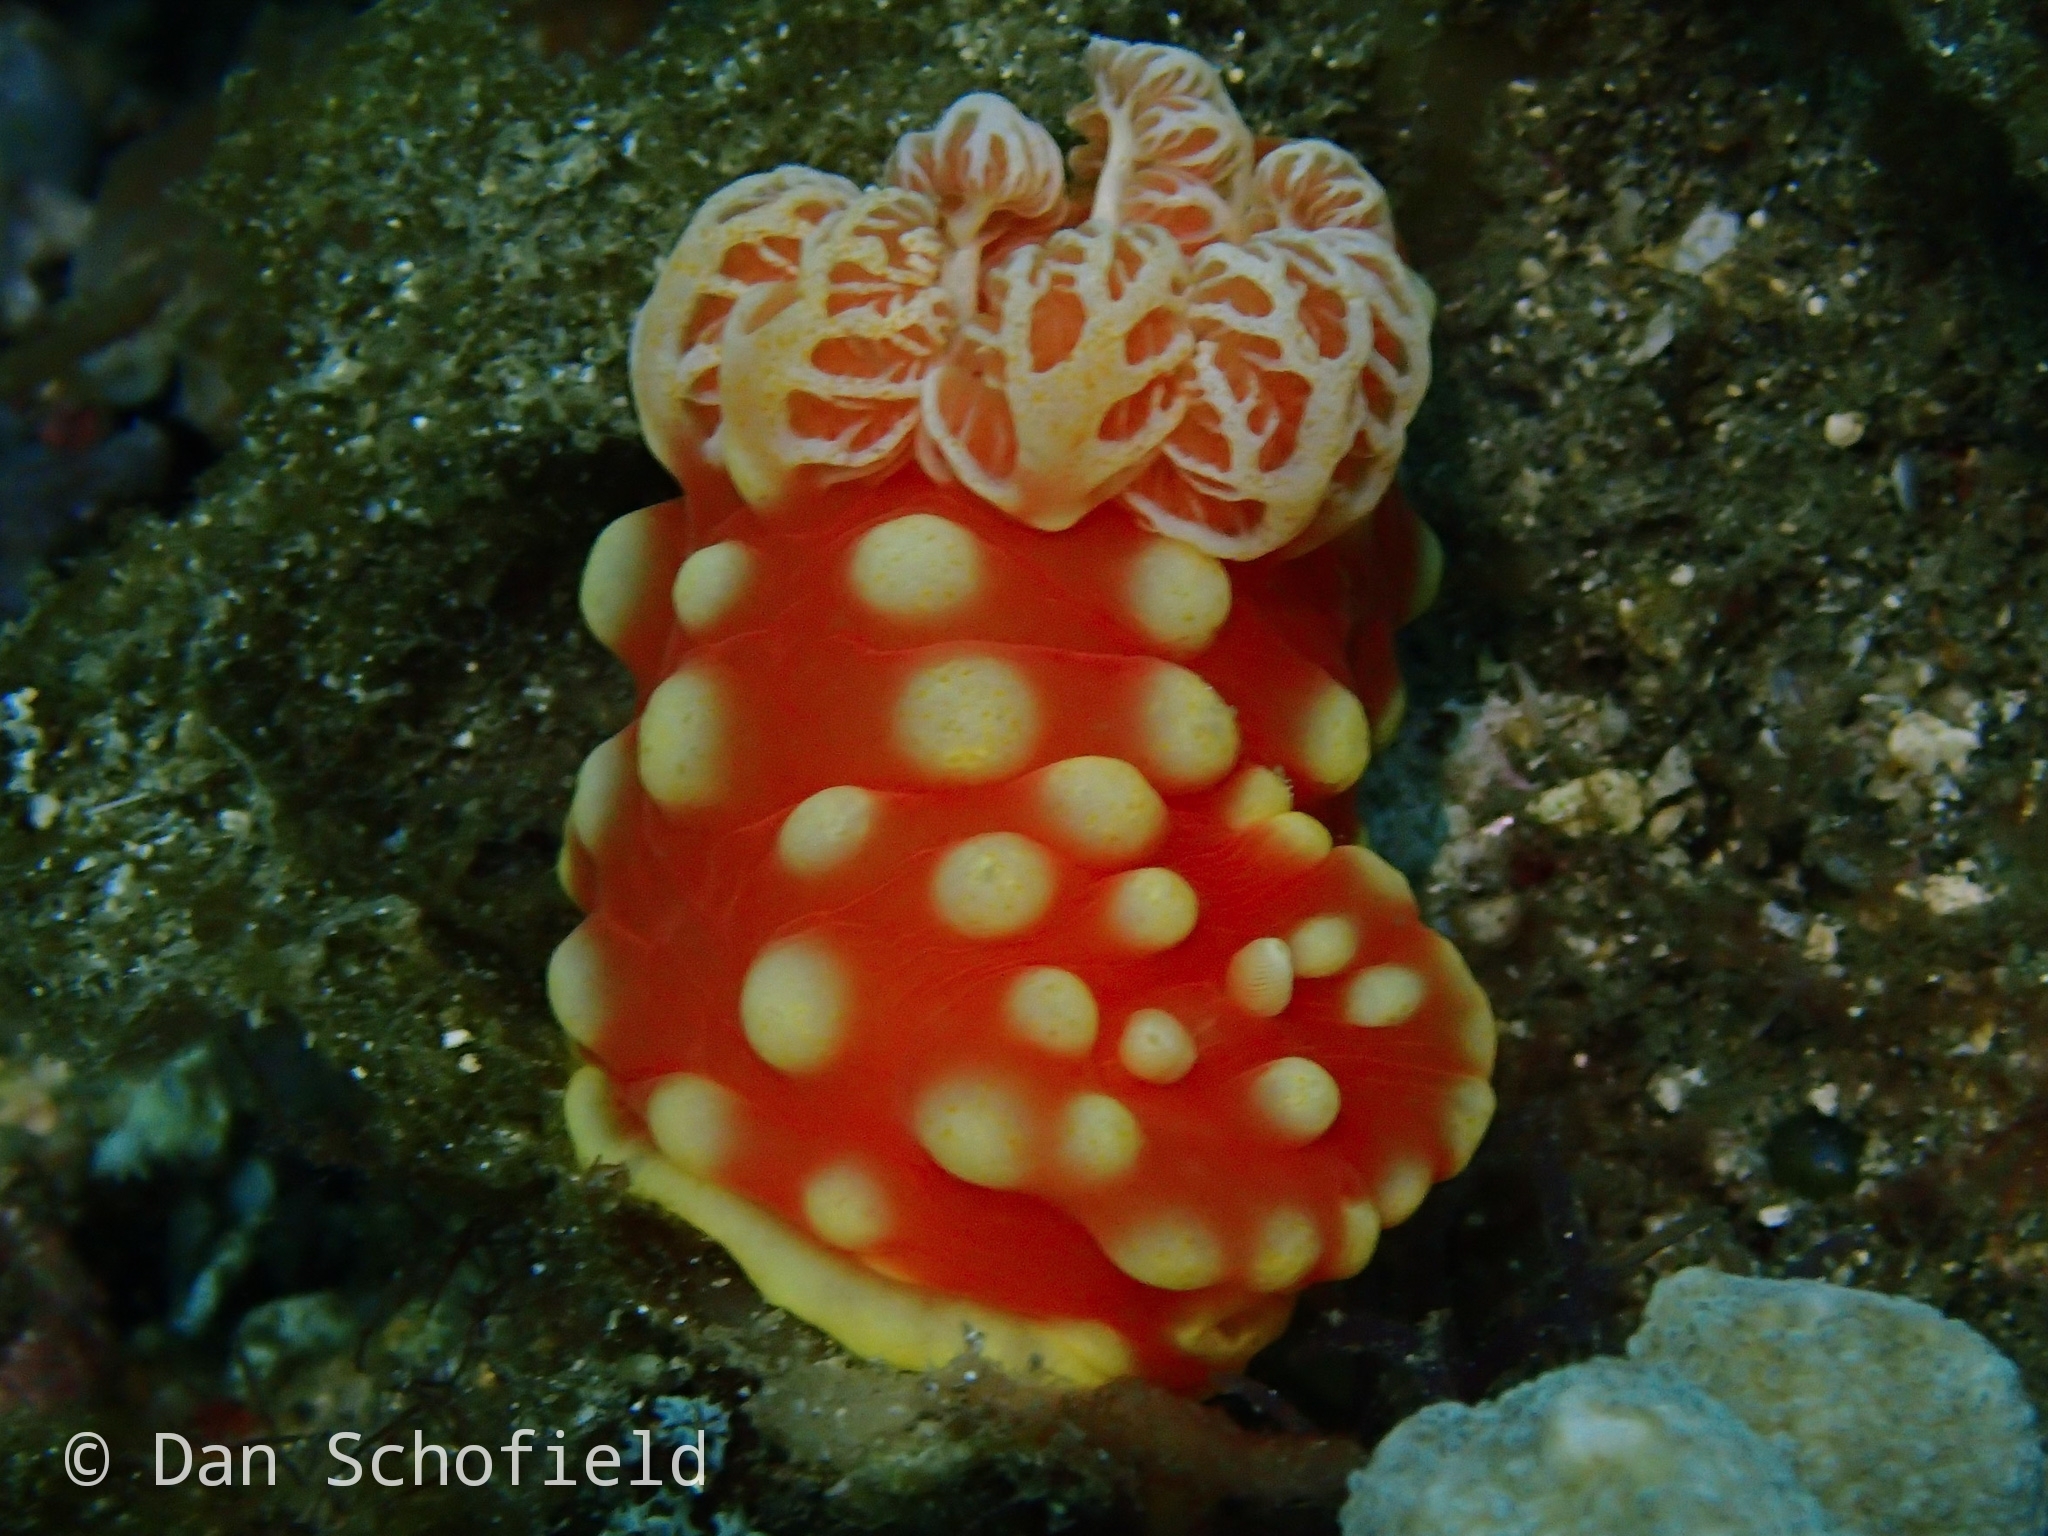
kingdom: Animalia
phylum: Mollusca
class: Gastropoda
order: Nudibranchia
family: Polyceridae
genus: Gymnodoris
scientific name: Gymnodoris aurita
